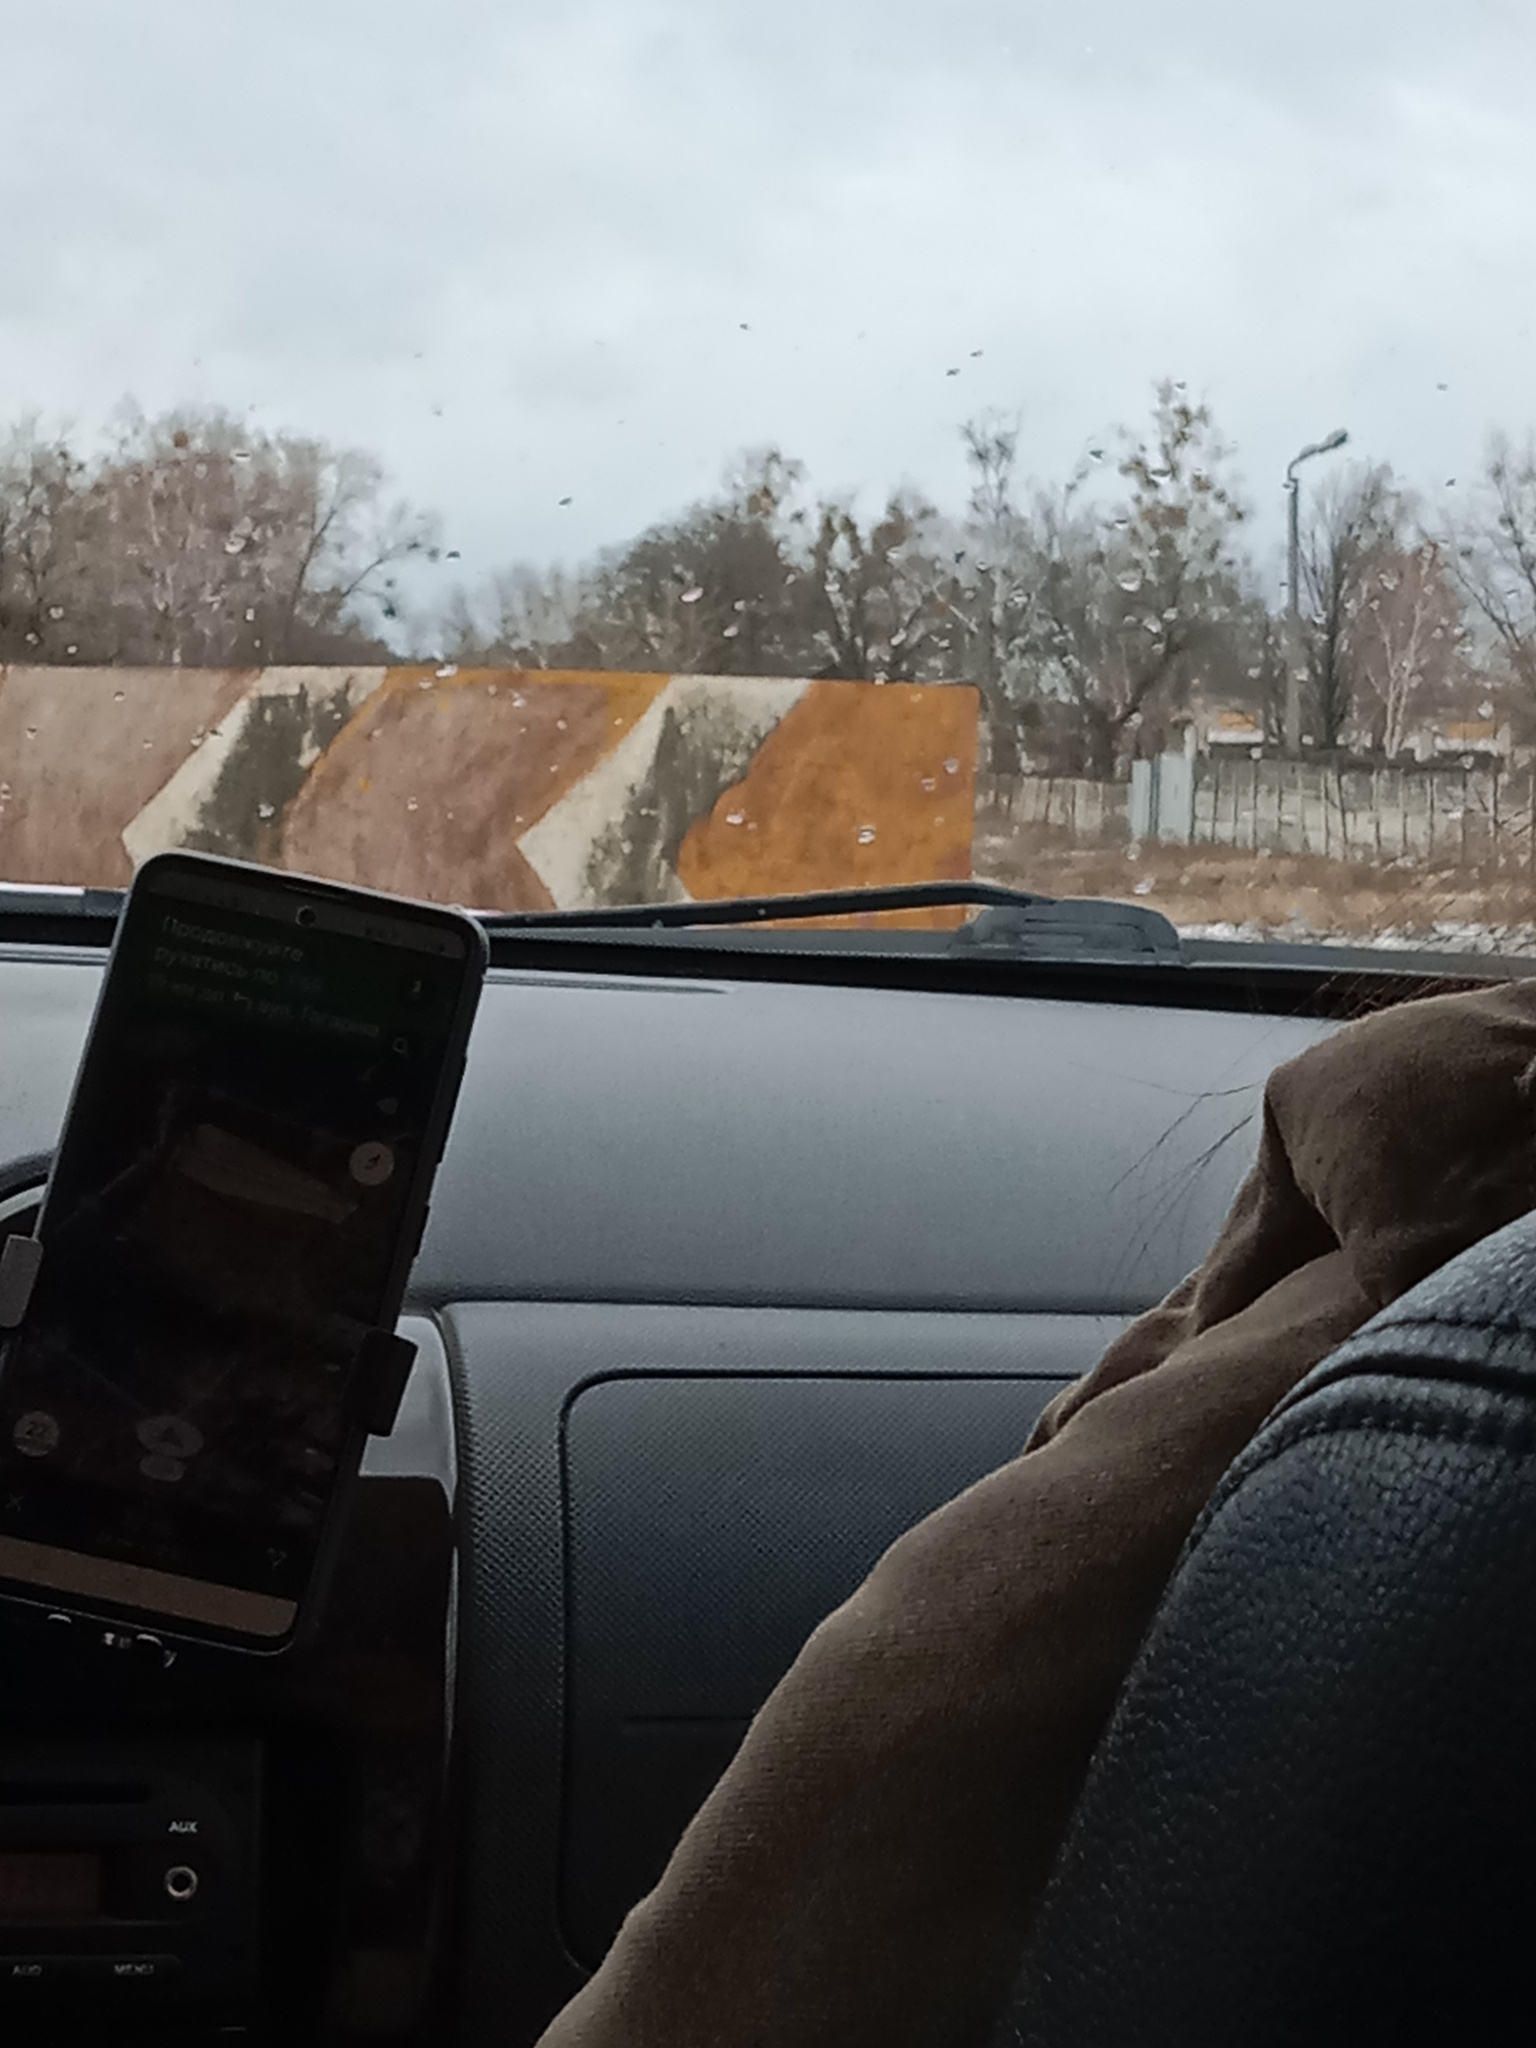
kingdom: Plantae
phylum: Tracheophyta
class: Magnoliopsida
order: Santalales
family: Viscaceae
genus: Viscum
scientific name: Viscum album
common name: Mistletoe
